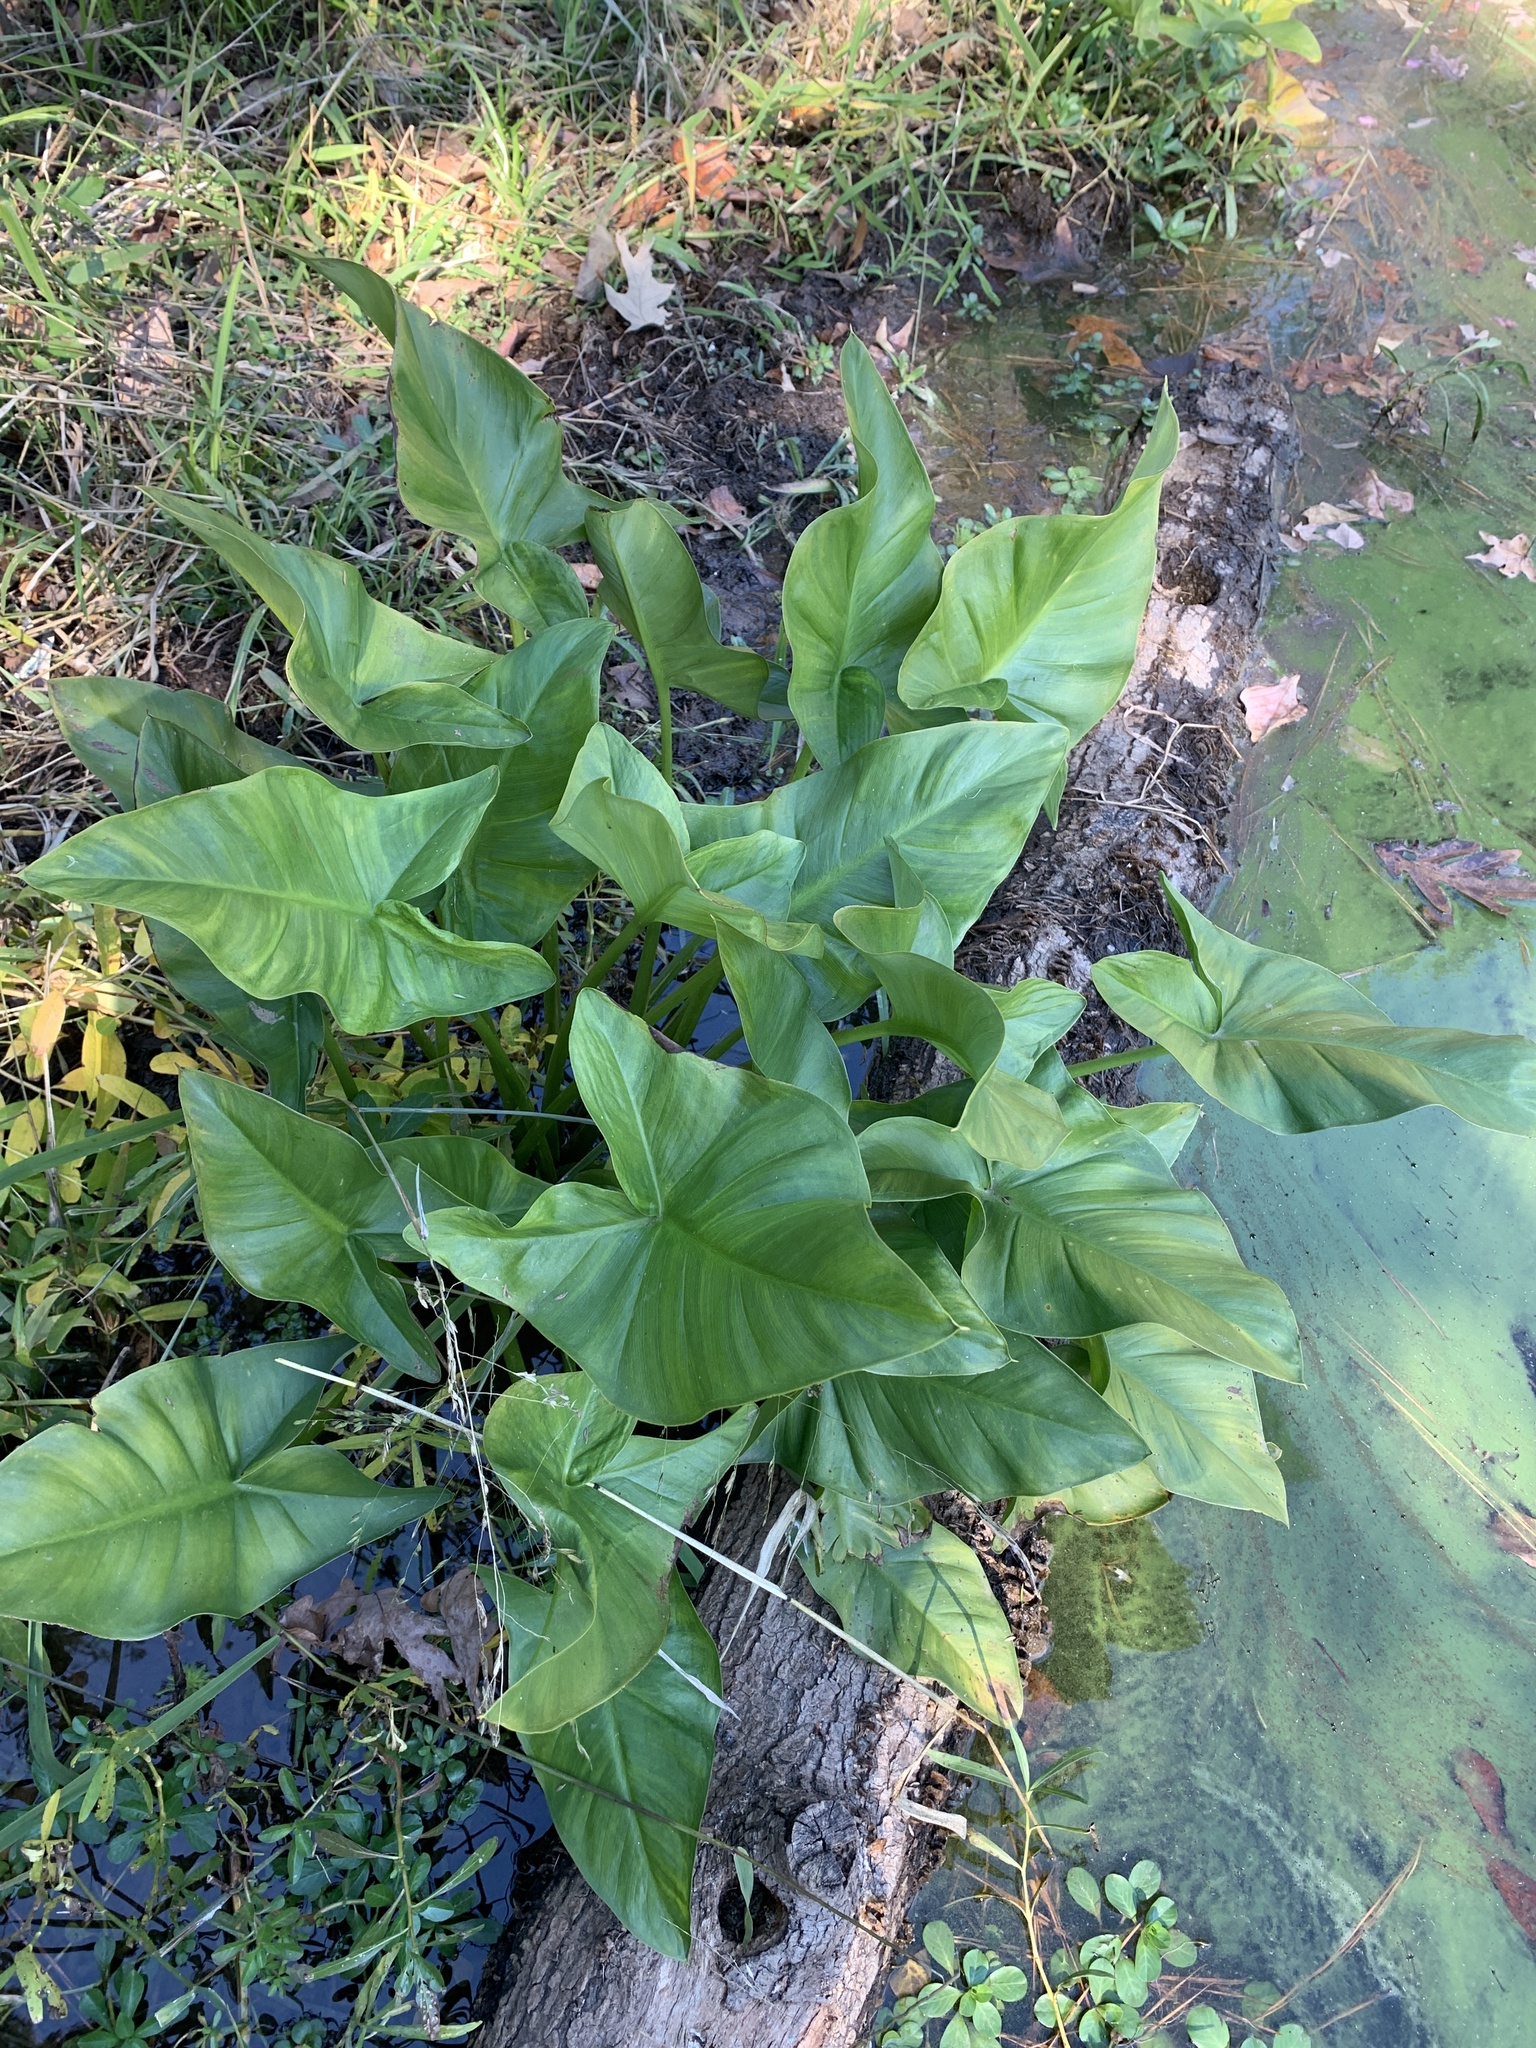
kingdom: Plantae
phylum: Tracheophyta
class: Liliopsida
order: Alismatales
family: Araceae
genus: Peltandra
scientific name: Peltandra virginica
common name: Arrow arum
